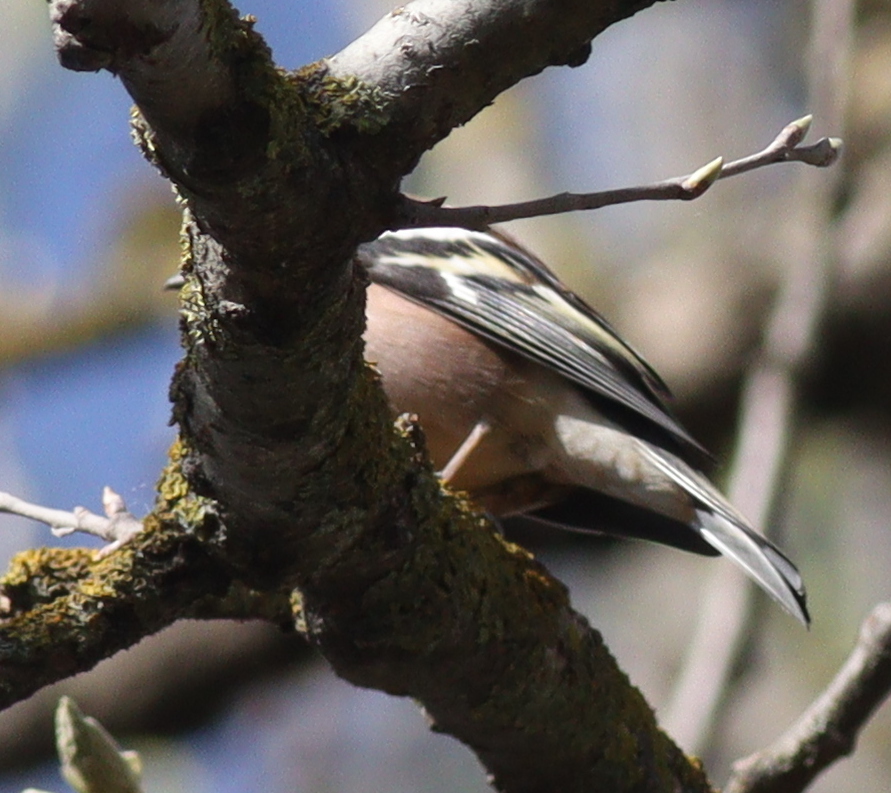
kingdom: Animalia
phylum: Chordata
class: Aves
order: Passeriformes
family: Fringillidae
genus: Fringilla
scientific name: Fringilla coelebs
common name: Common chaffinch
